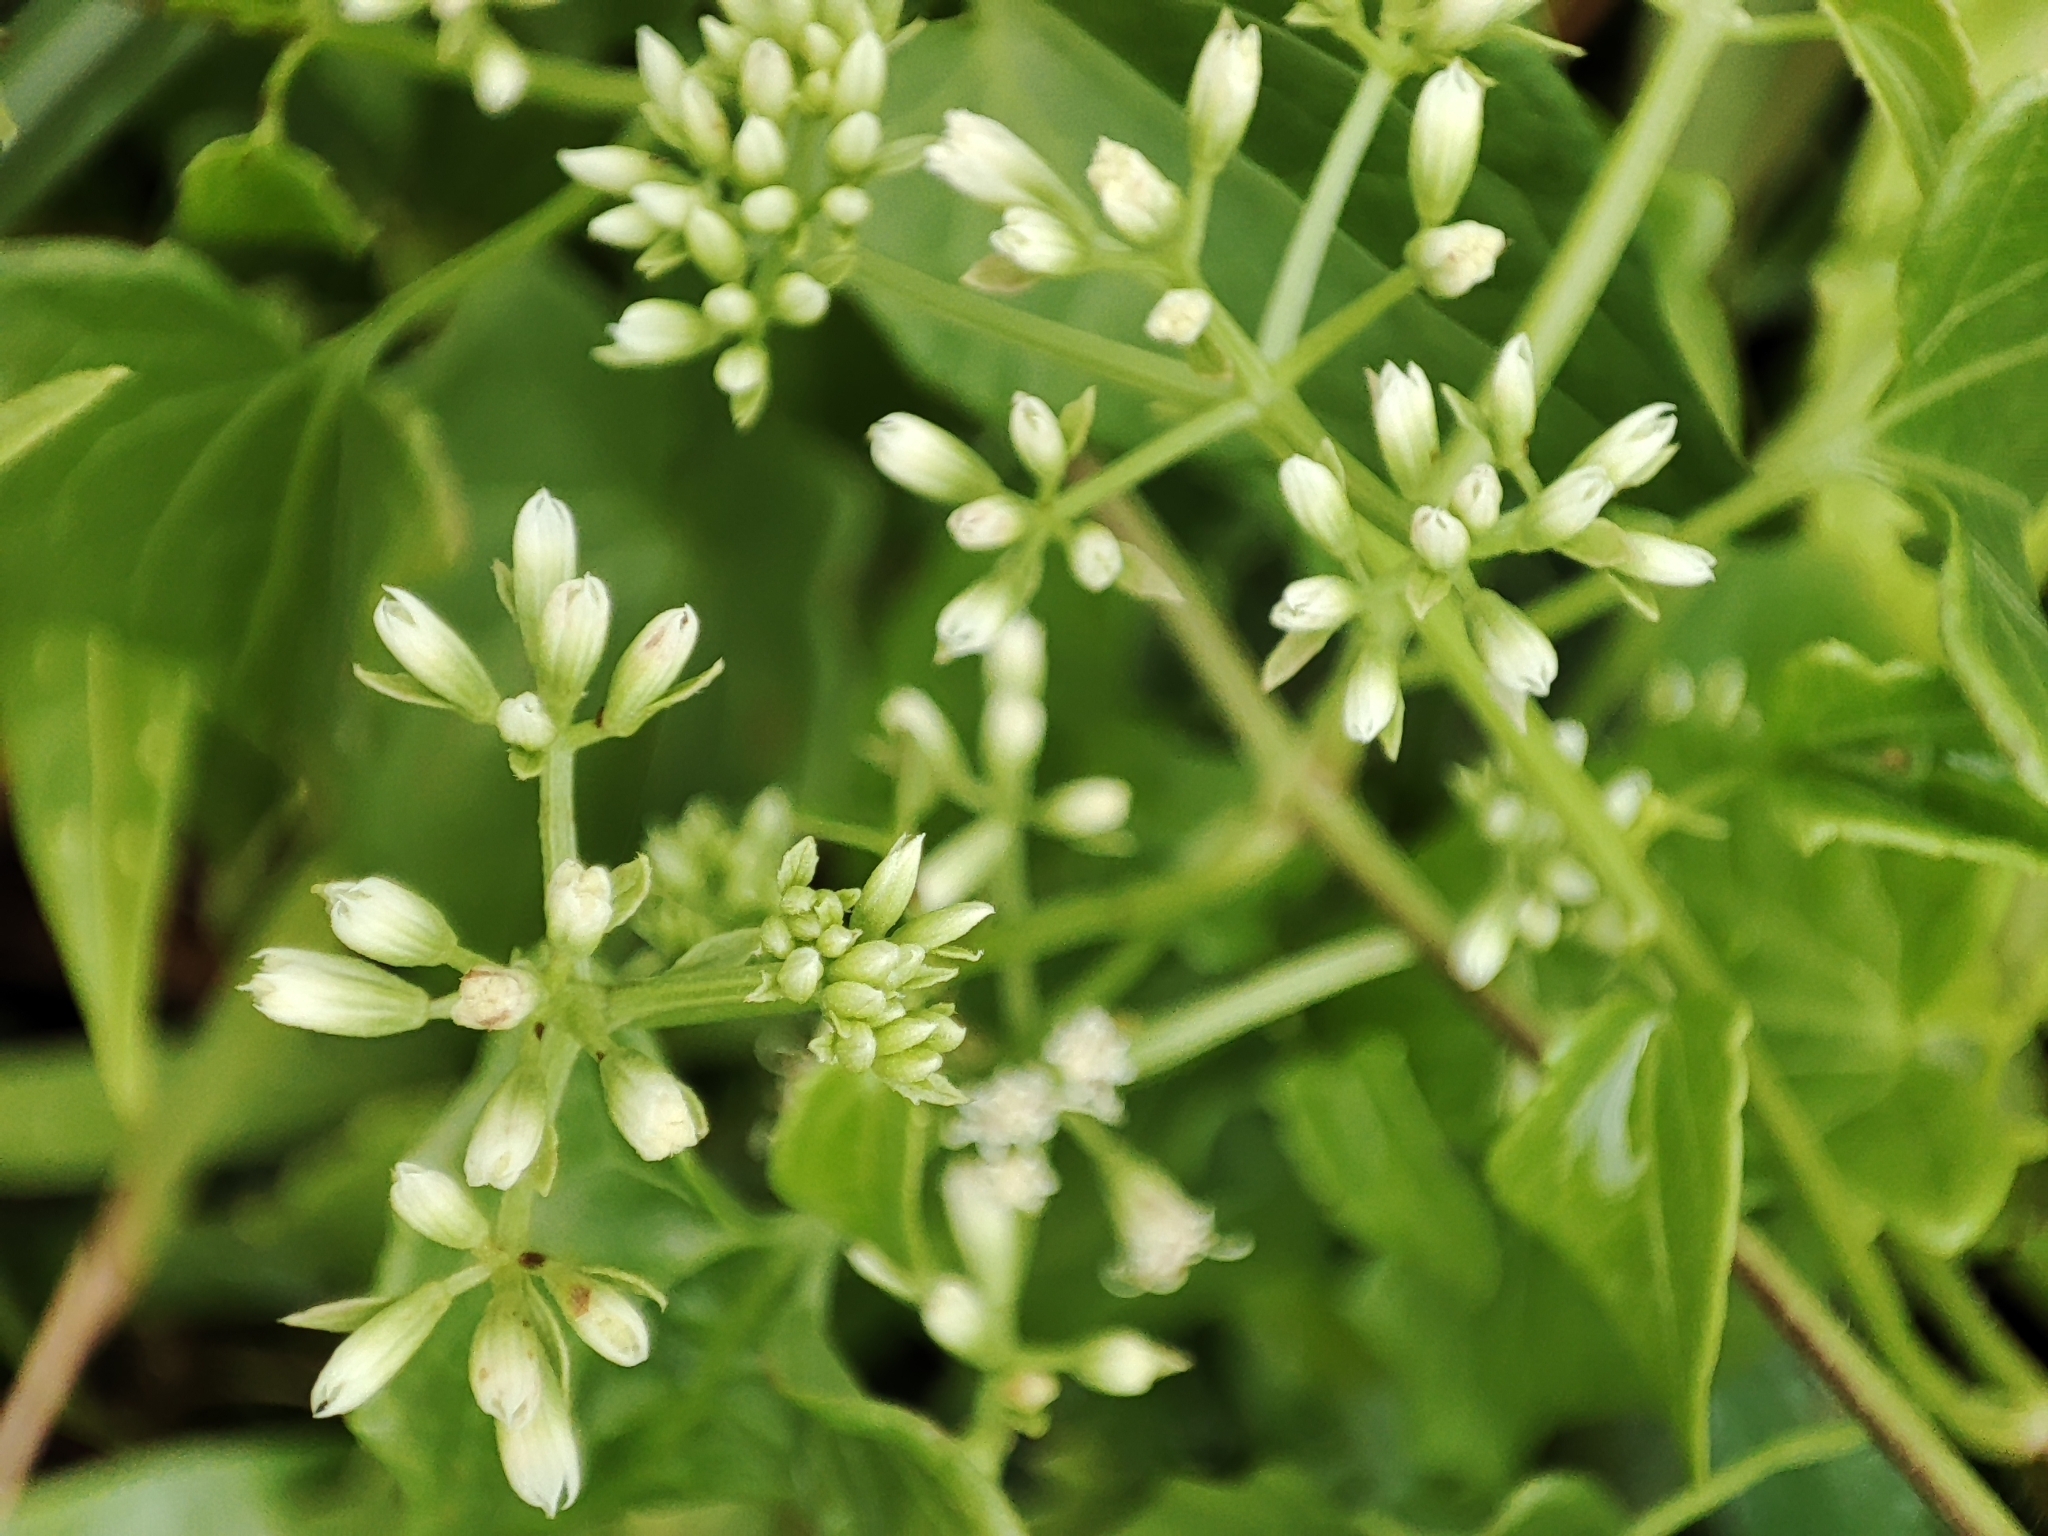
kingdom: Plantae
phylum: Tracheophyta
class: Magnoliopsida
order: Asterales
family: Asteraceae
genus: Mikania
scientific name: Mikania micrantha
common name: Mile-a-minute
